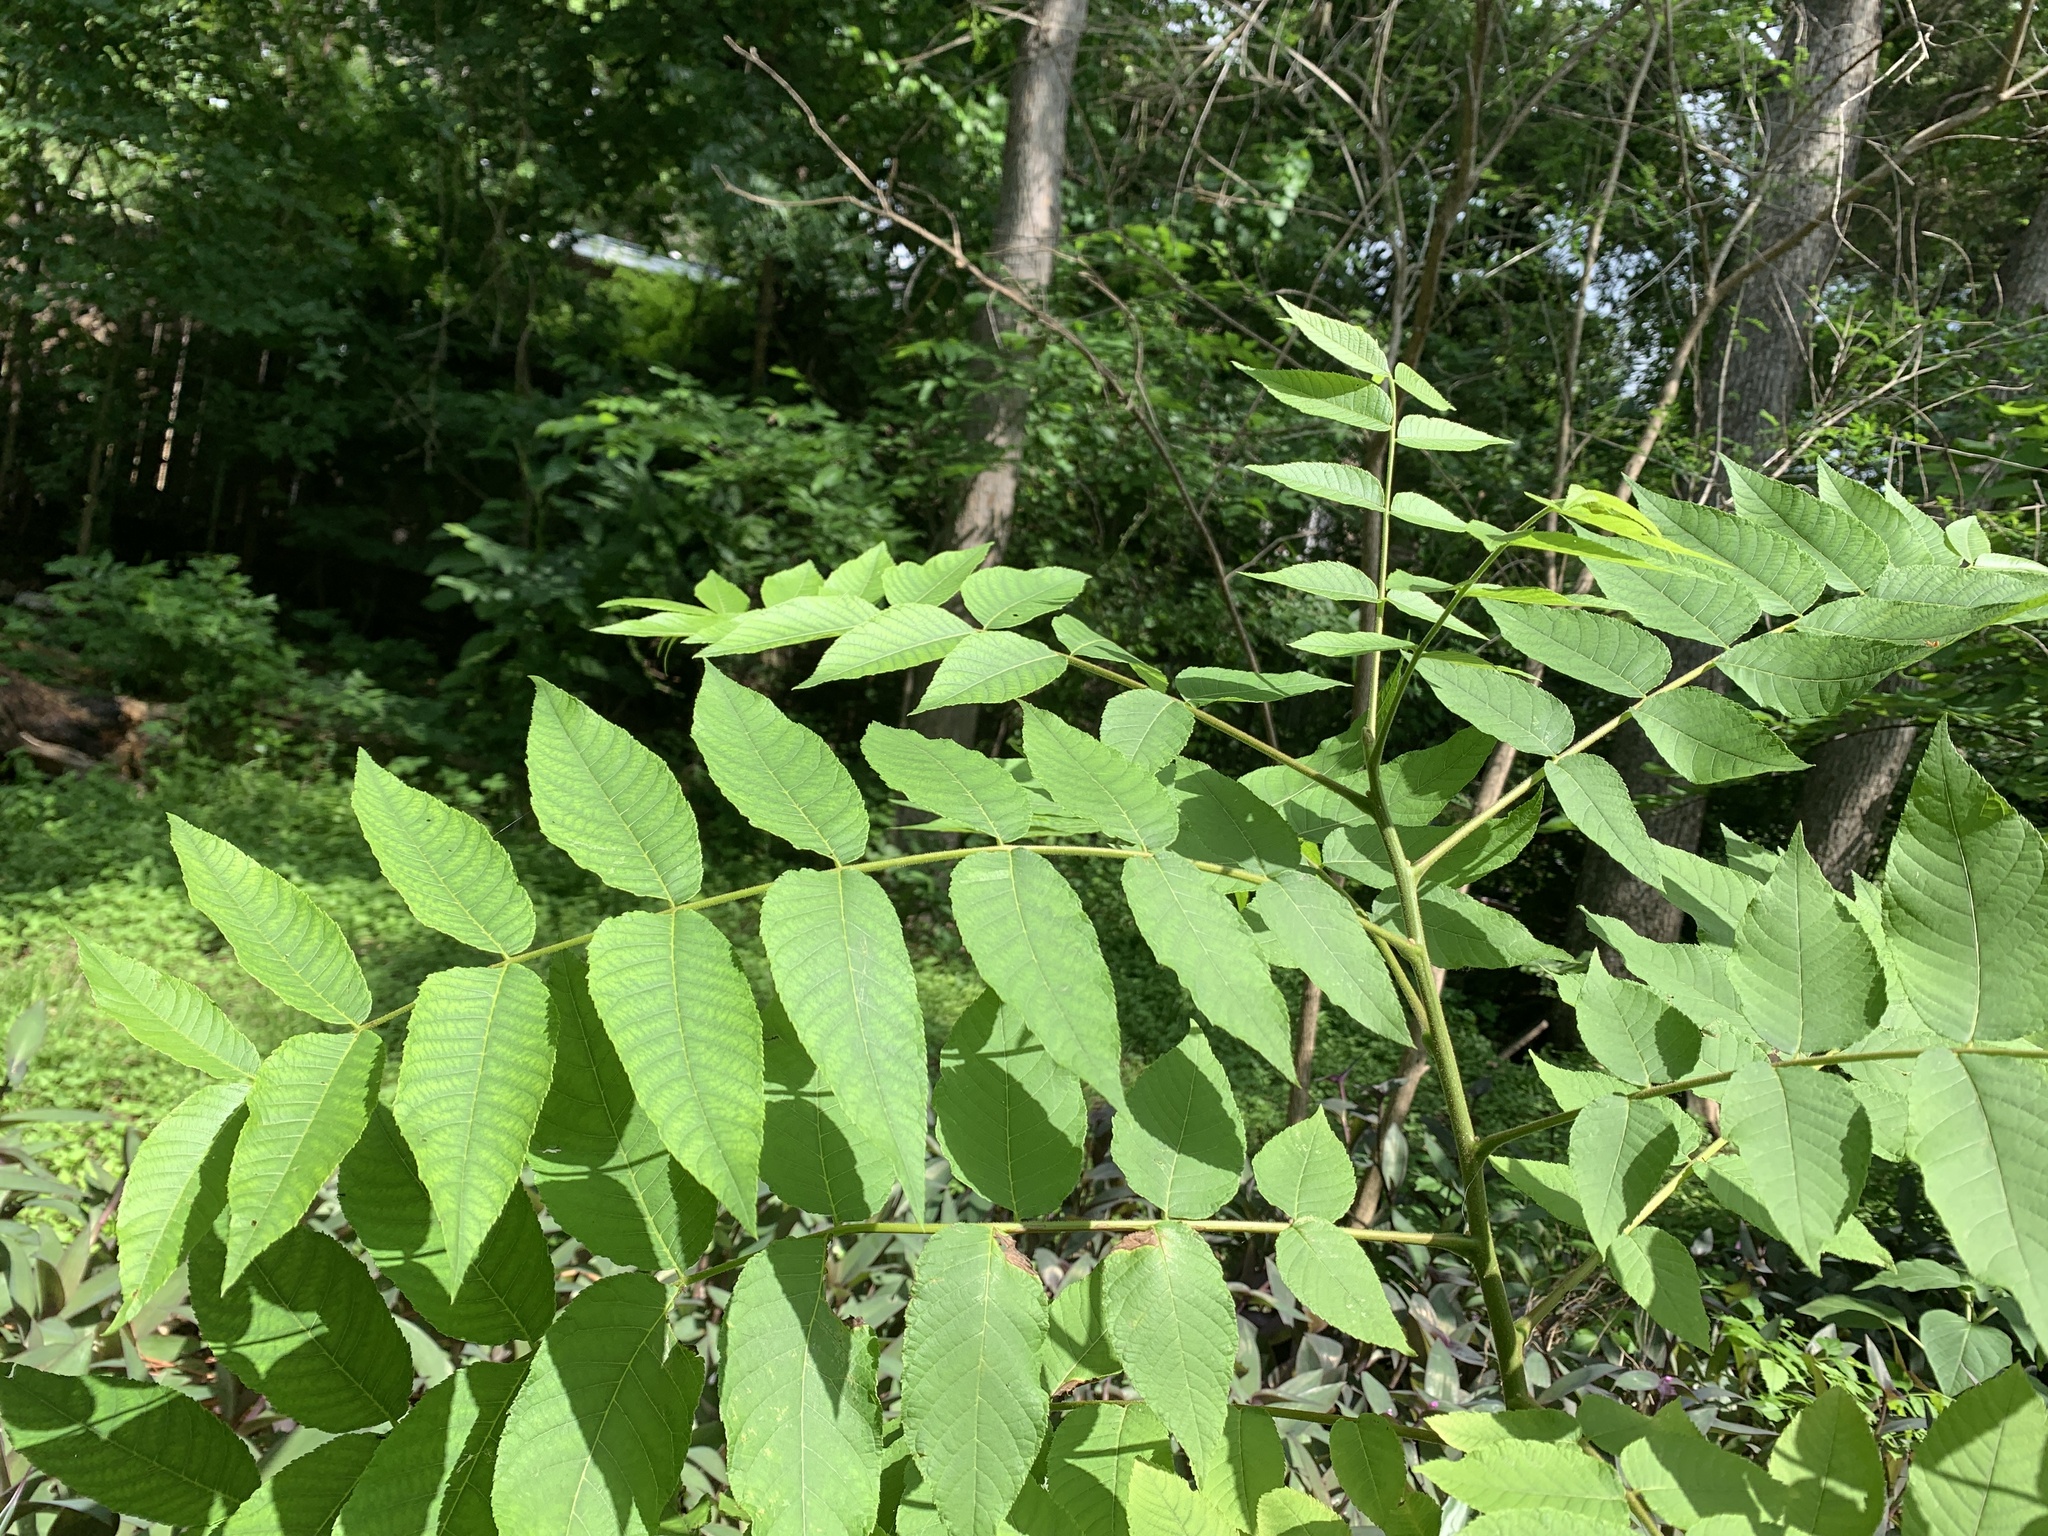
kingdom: Plantae
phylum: Tracheophyta
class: Magnoliopsida
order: Fagales
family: Juglandaceae
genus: Juglans
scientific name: Juglans nigra
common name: Black walnut
